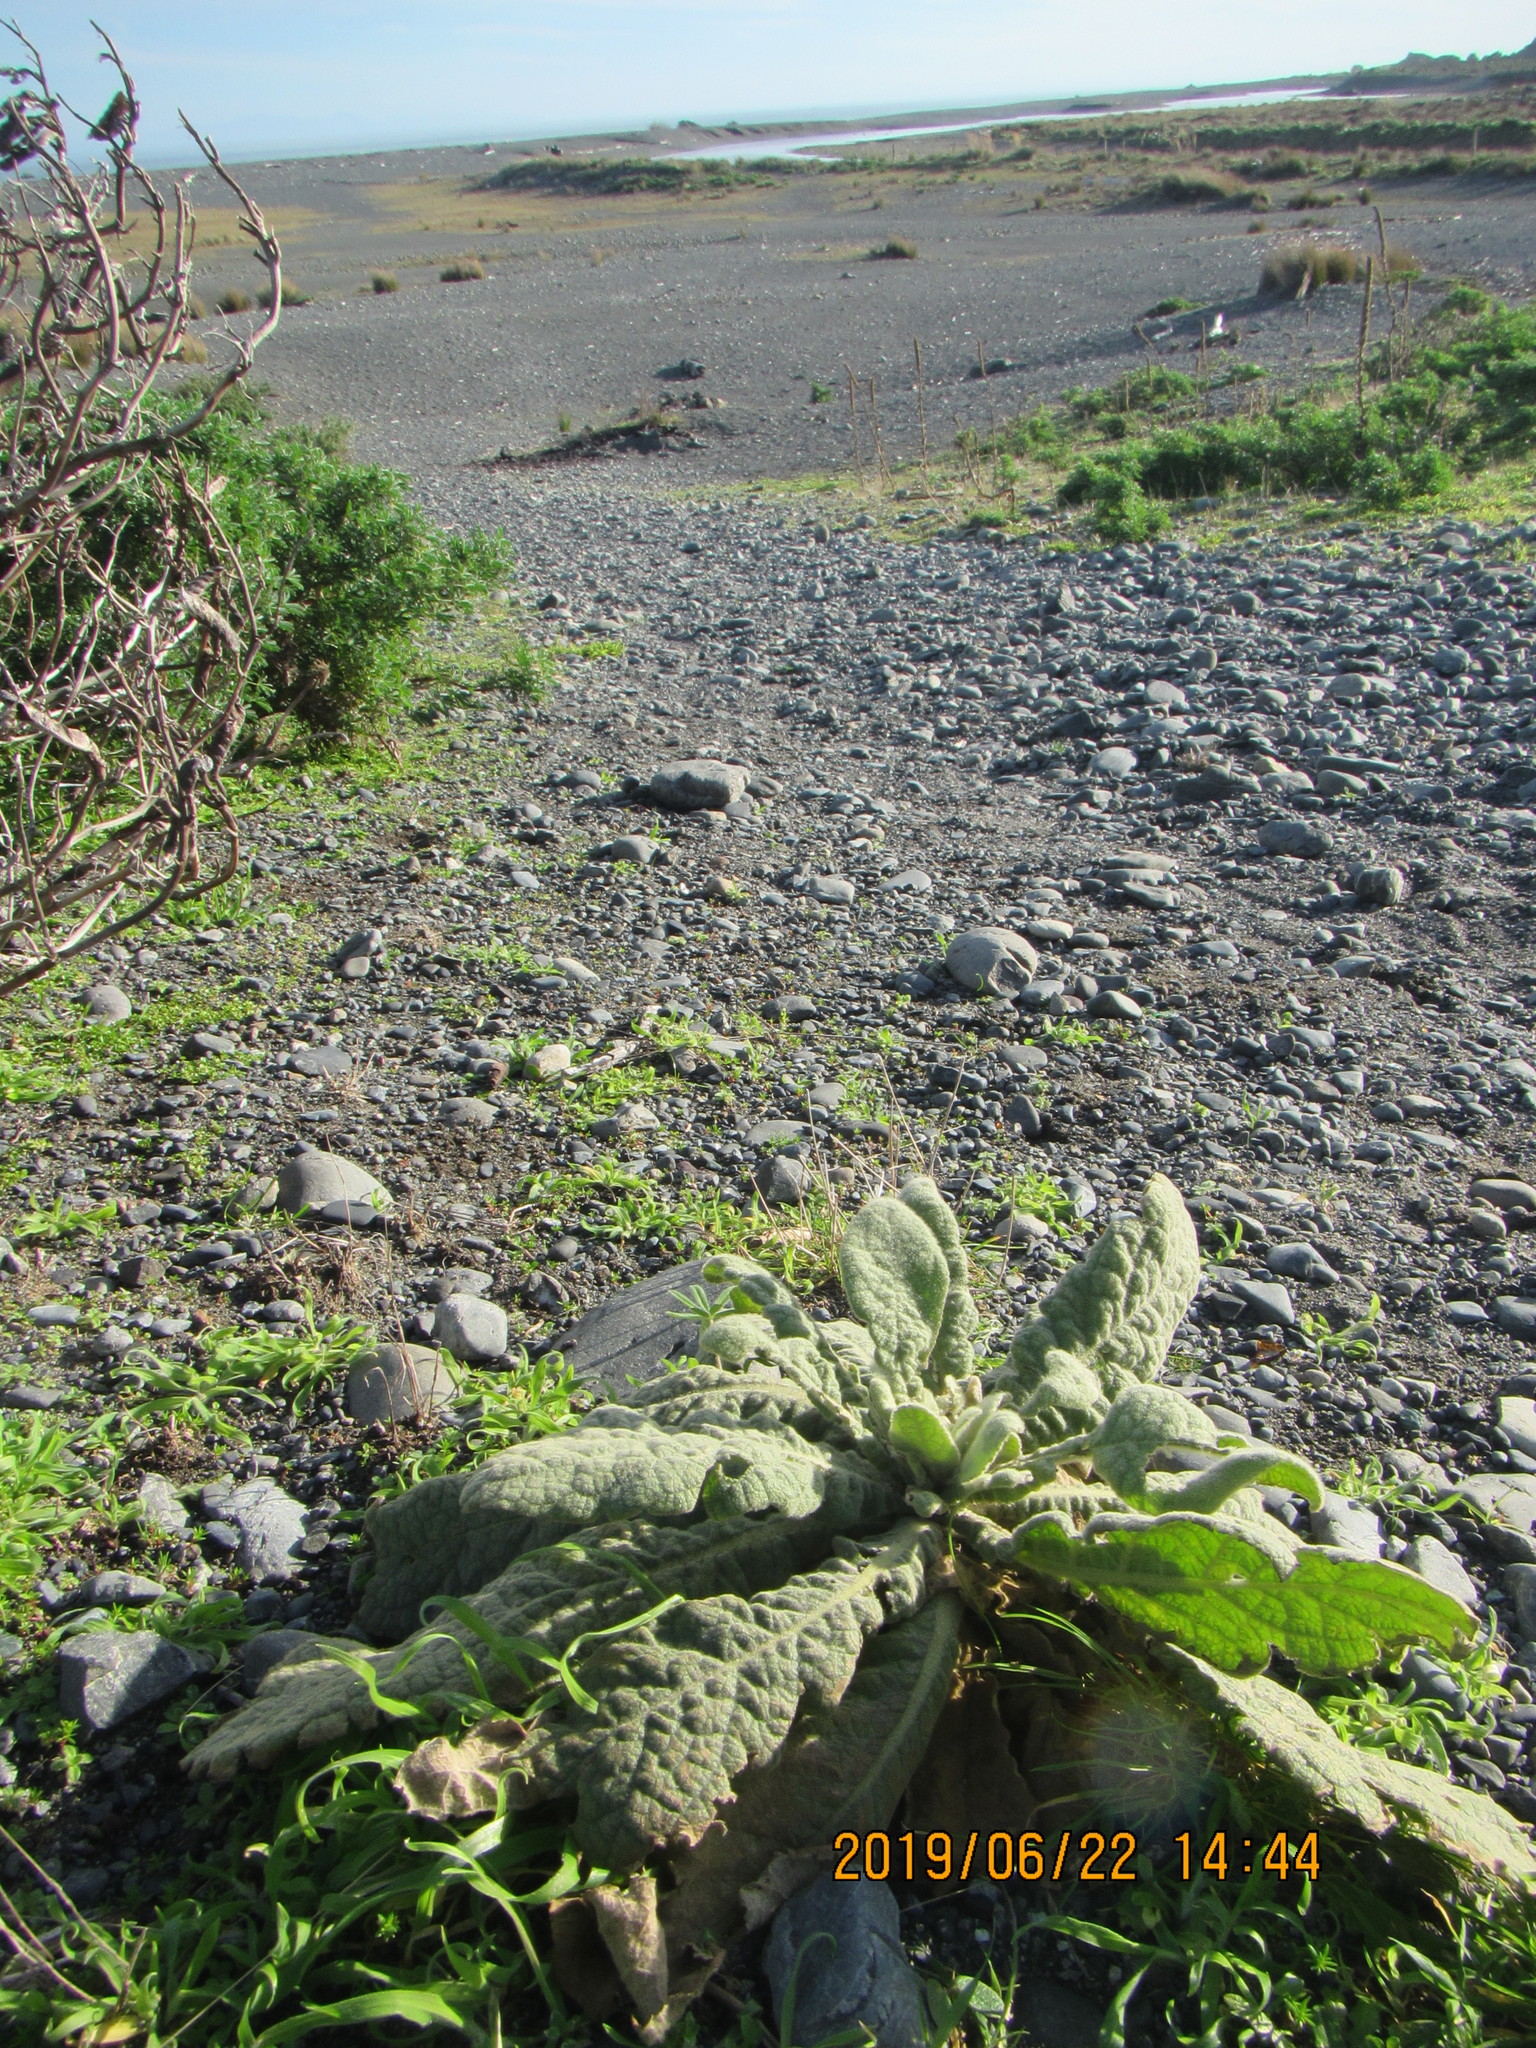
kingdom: Plantae
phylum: Tracheophyta
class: Magnoliopsida
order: Lamiales
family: Scrophulariaceae
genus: Verbascum
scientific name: Verbascum thapsus
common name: Common mullein
